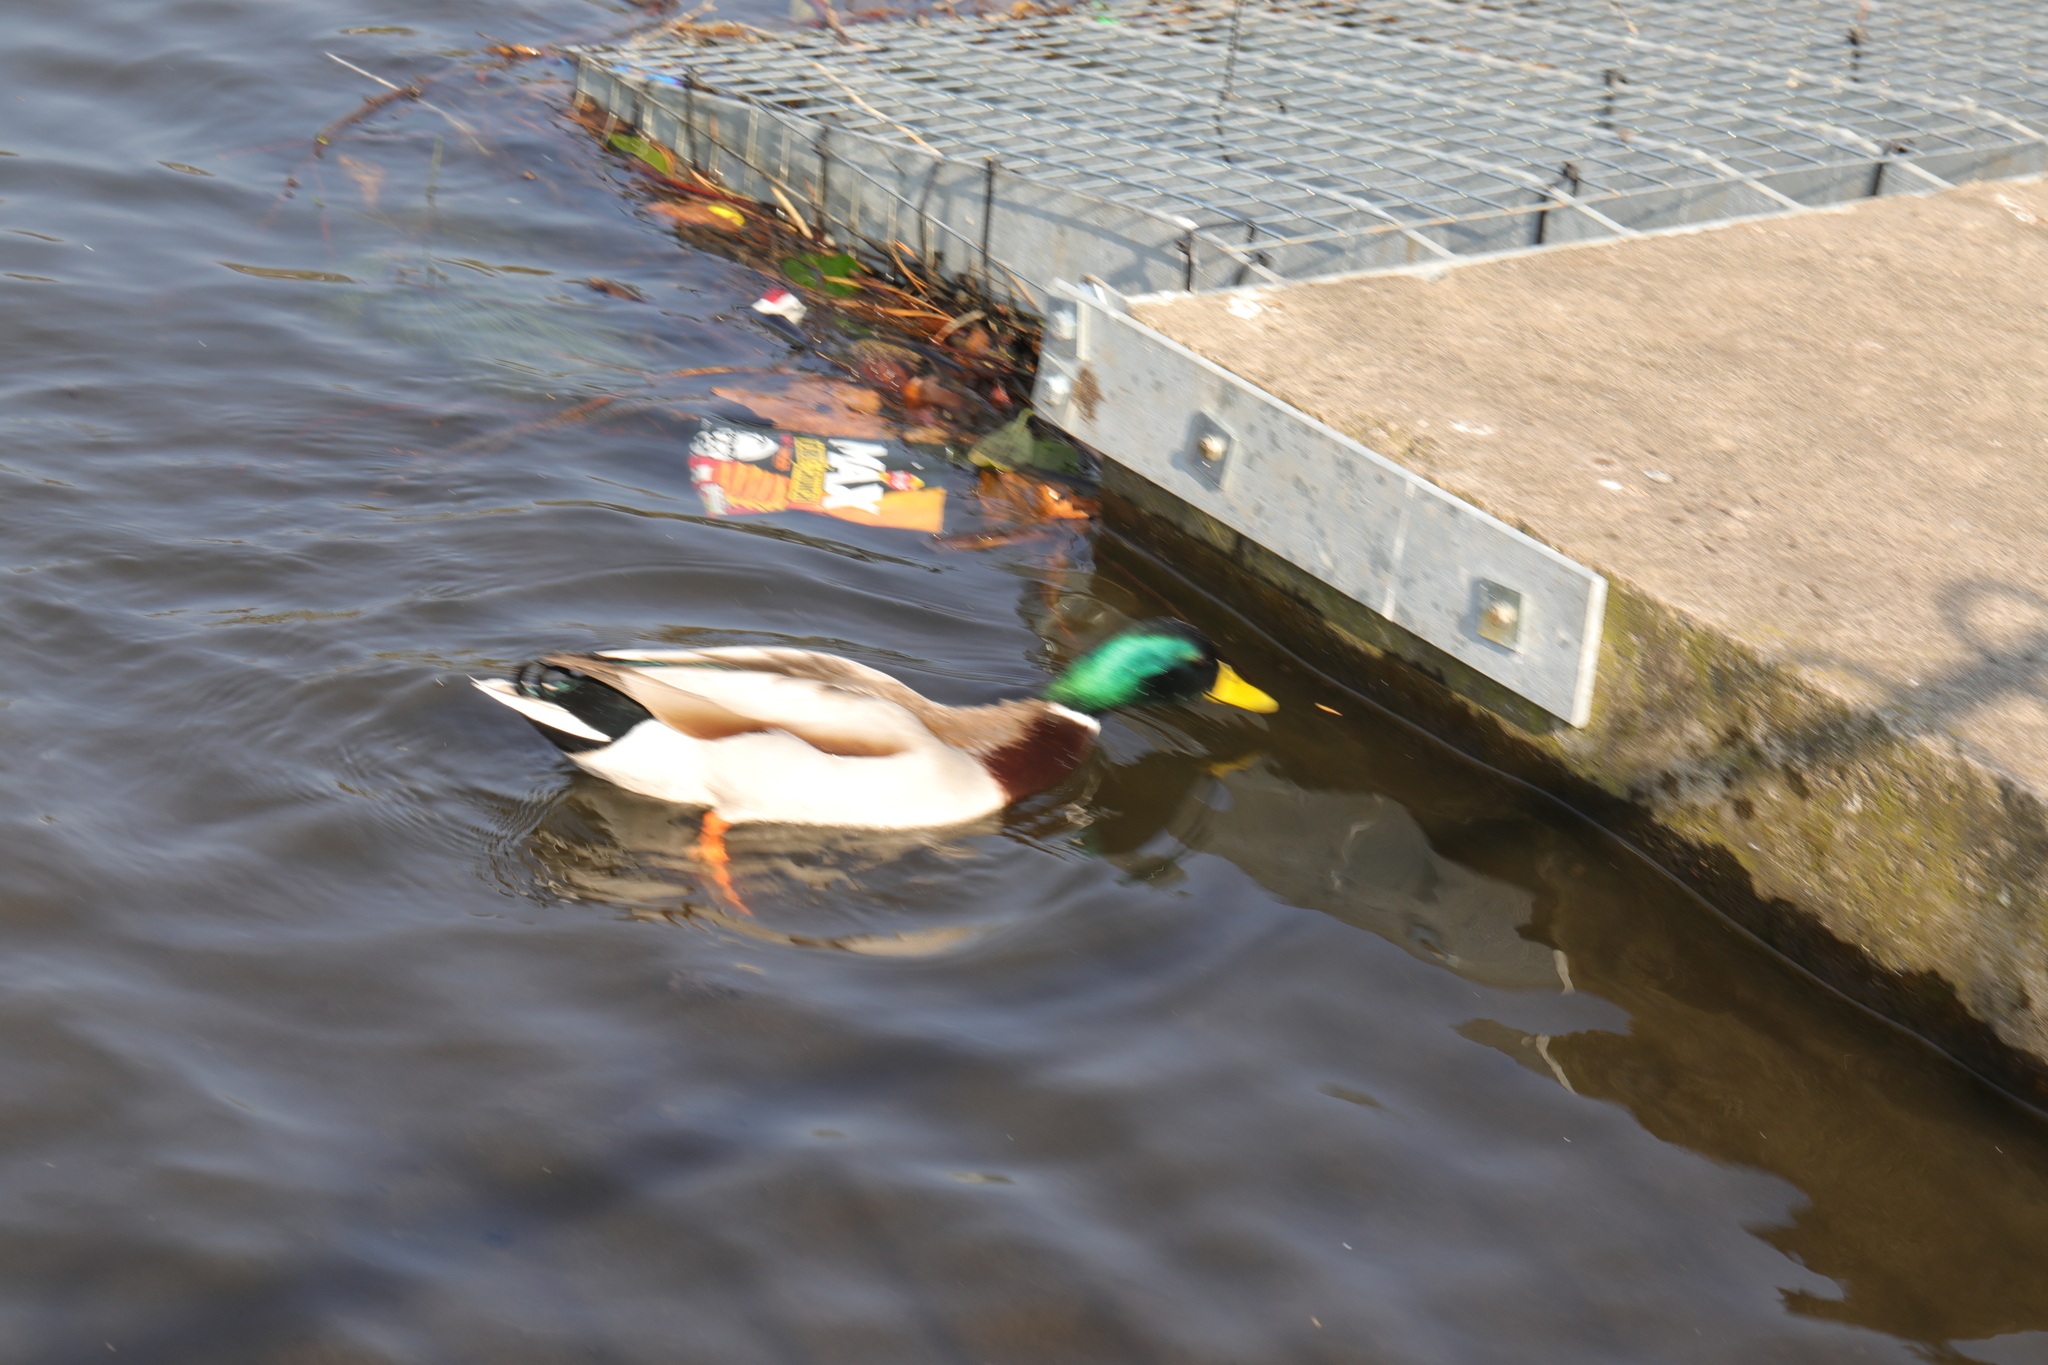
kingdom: Animalia
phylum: Chordata
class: Aves
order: Anseriformes
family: Anatidae
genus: Anas
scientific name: Anas platyrhynchos
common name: Mallard
